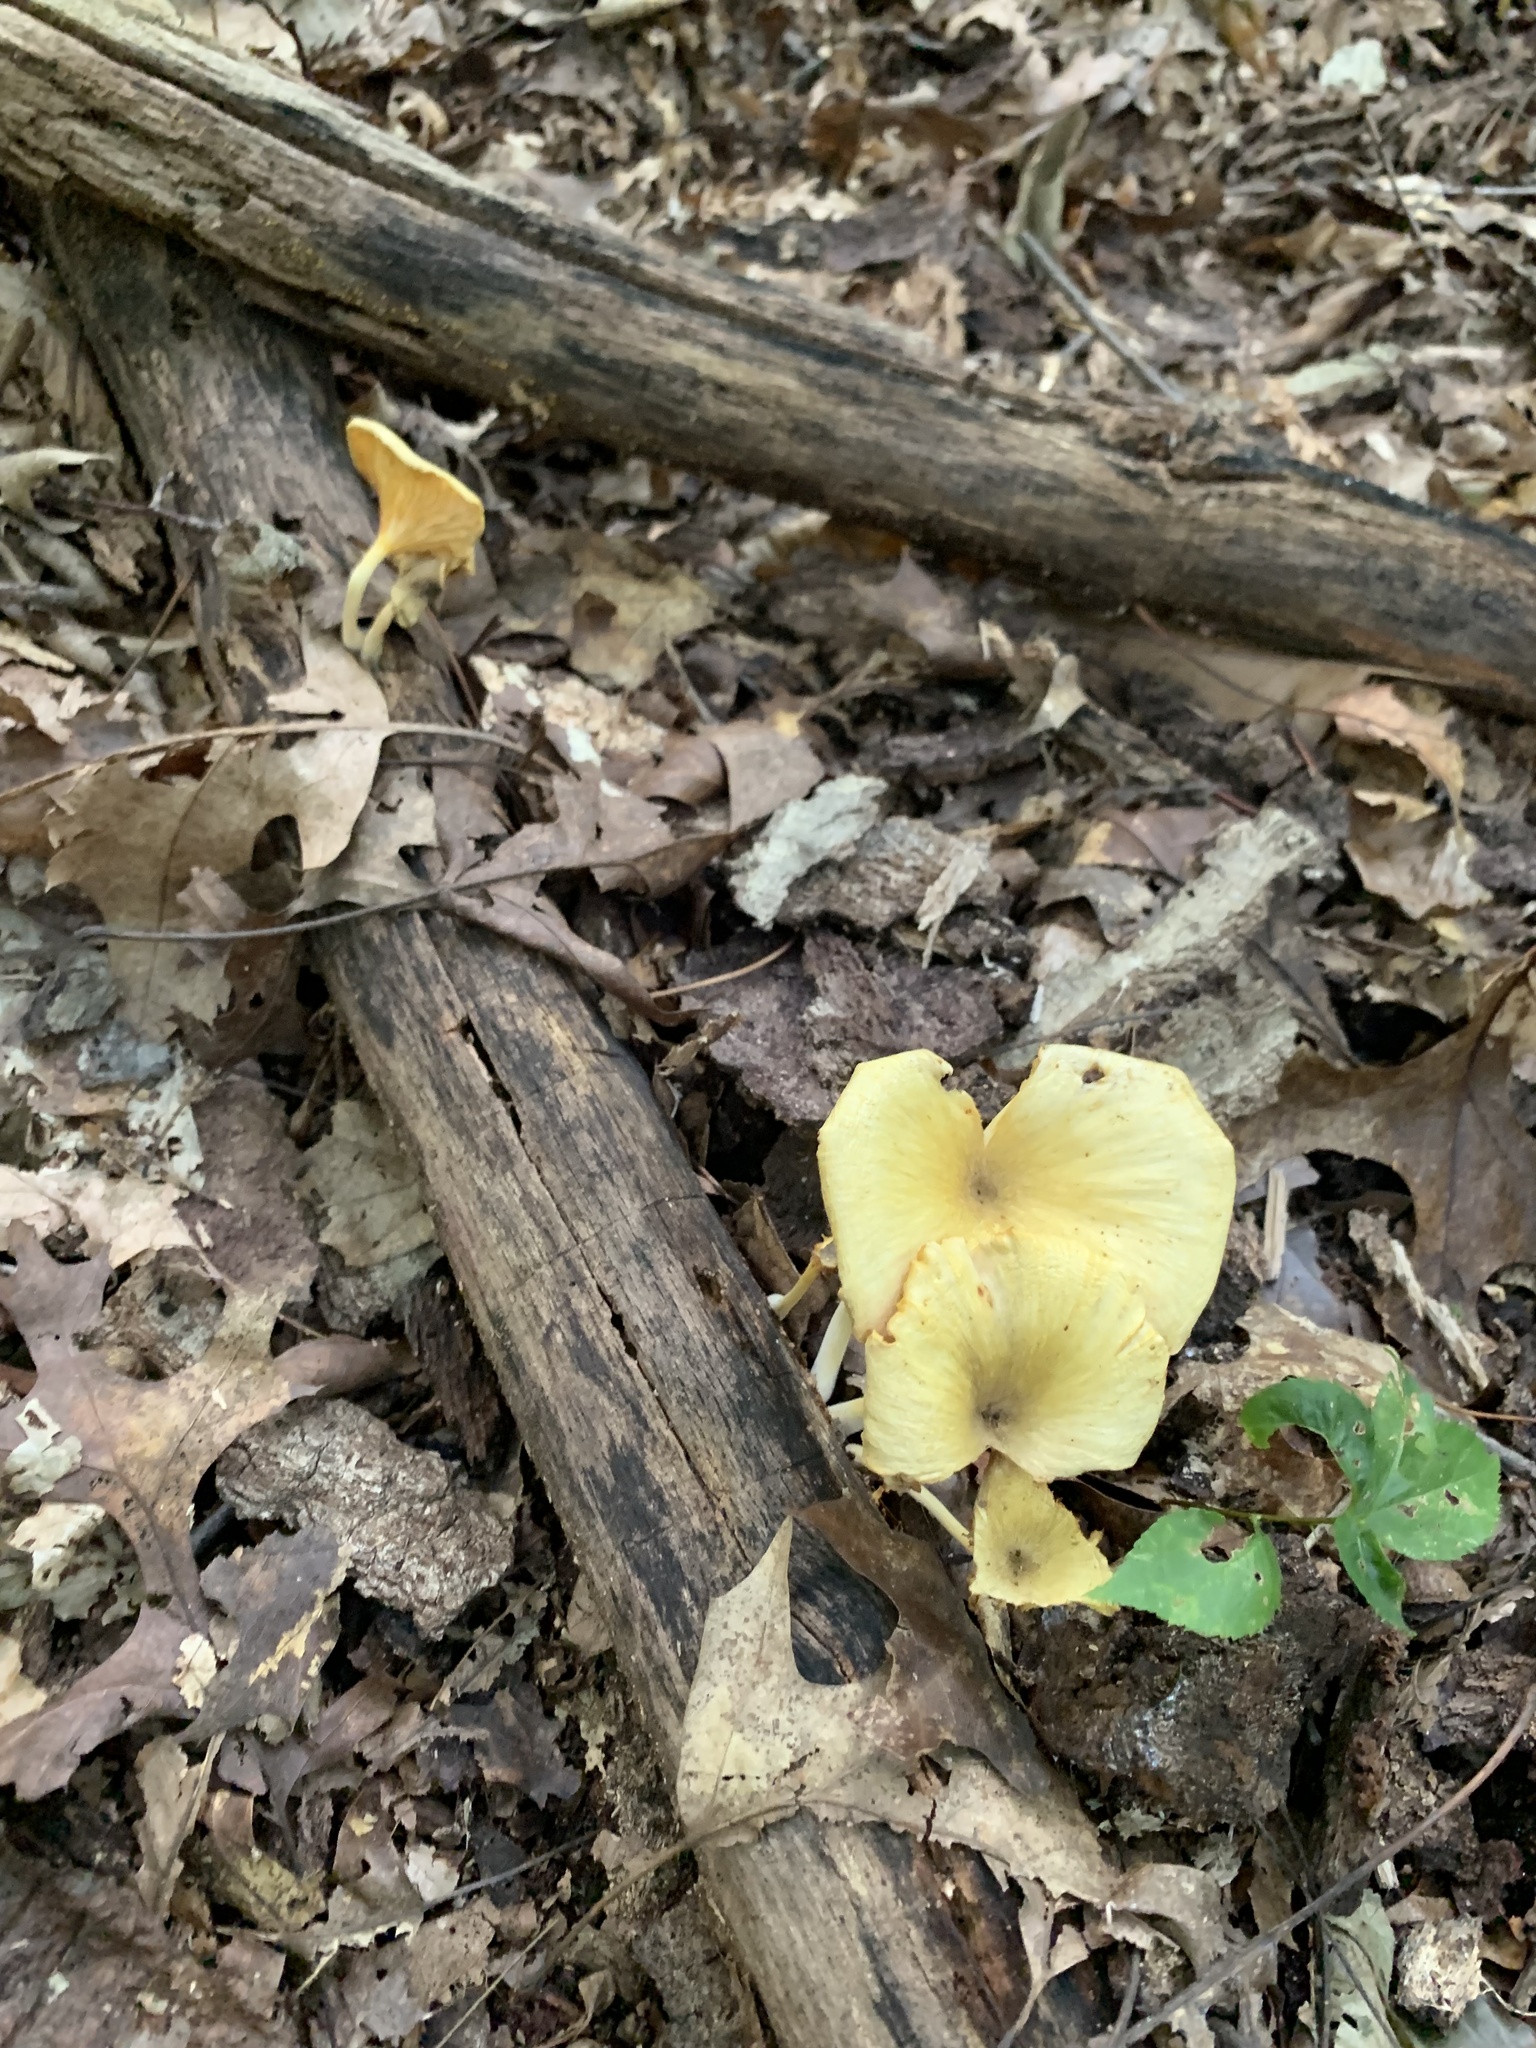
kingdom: Fungi
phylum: Basidiomycota
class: Agaricomycetes
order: Agaricales
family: Marasmiaceae
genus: Gerronema
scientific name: Gerronema strombodes
